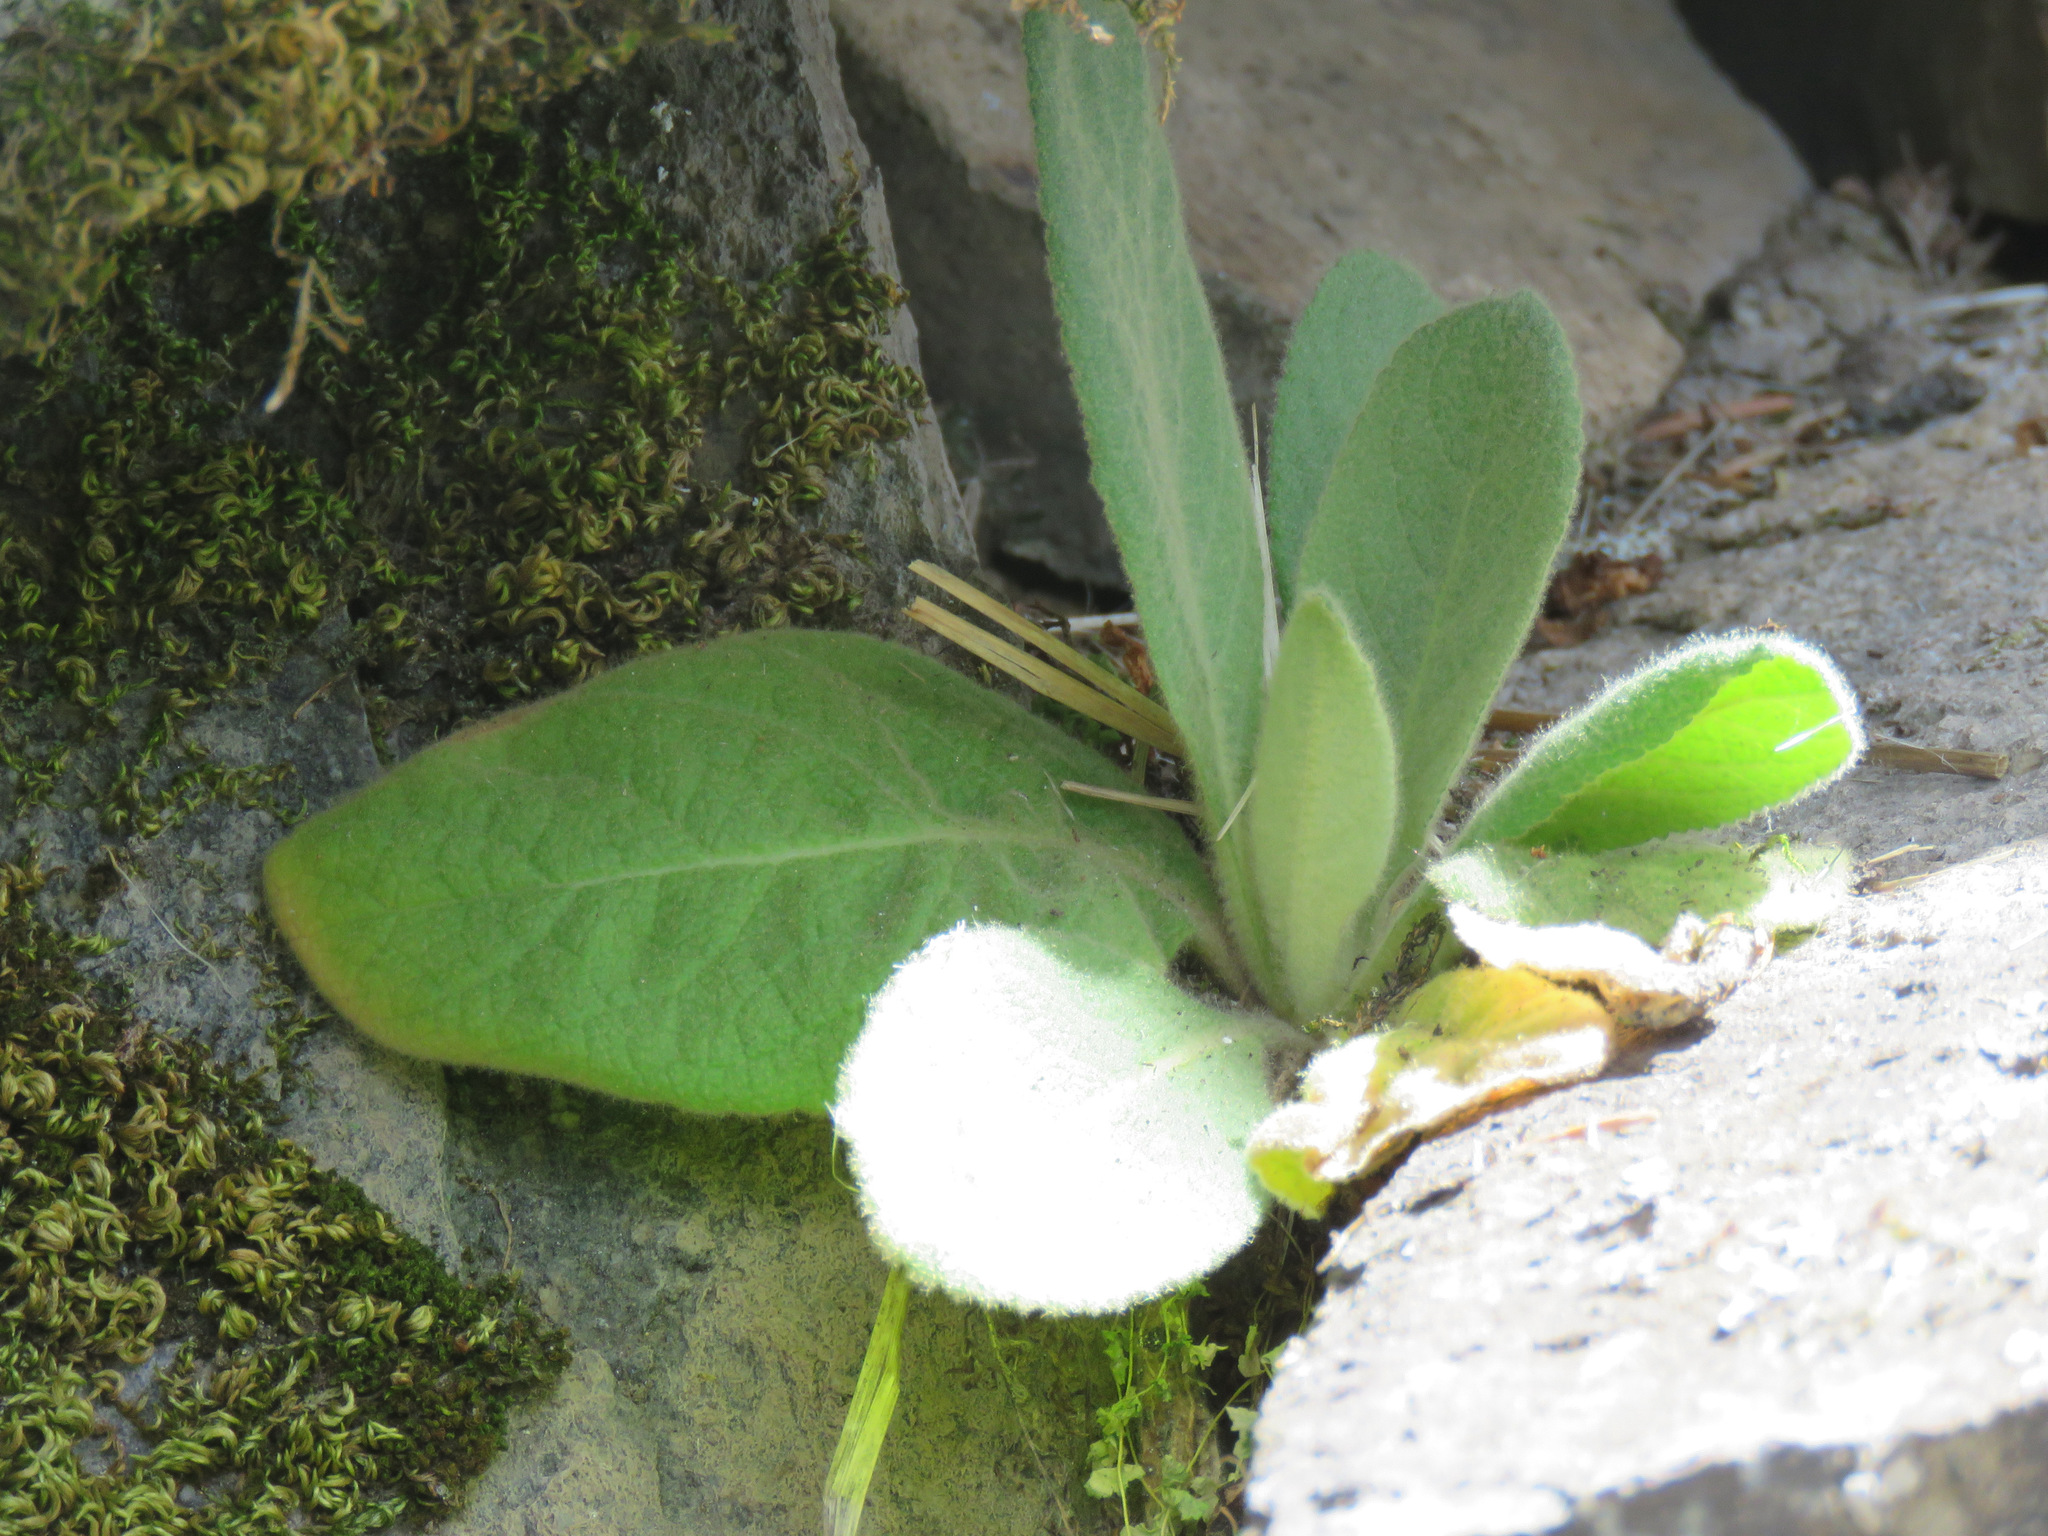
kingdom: Plantae
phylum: Tracheophyta
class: Magnoliopsida
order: Lamiales
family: Scrophulariaceae
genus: Verbascum
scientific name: Verbascum thapsus
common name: Common mullein
